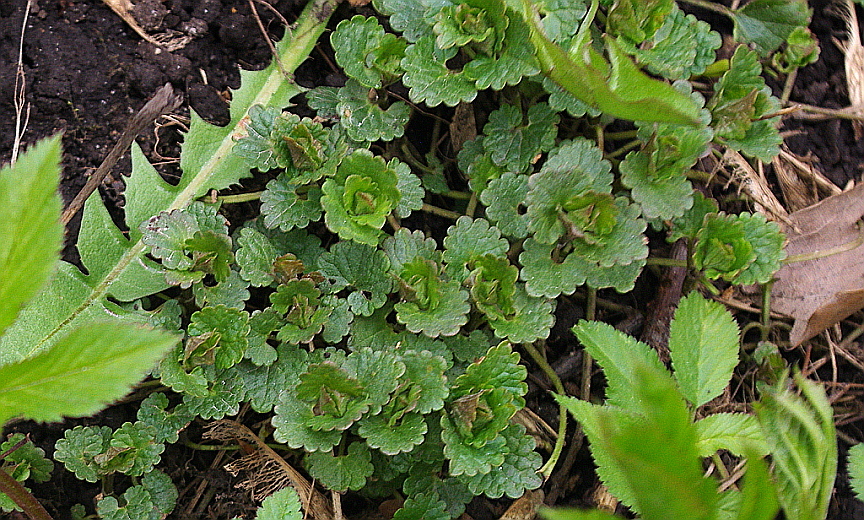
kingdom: Plantae
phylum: Tracheophyta
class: Magnoliopsida
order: Lamiales
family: Lamiaceae
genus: Glechoma
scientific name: Glechoma hederacea
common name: Ground ivy
